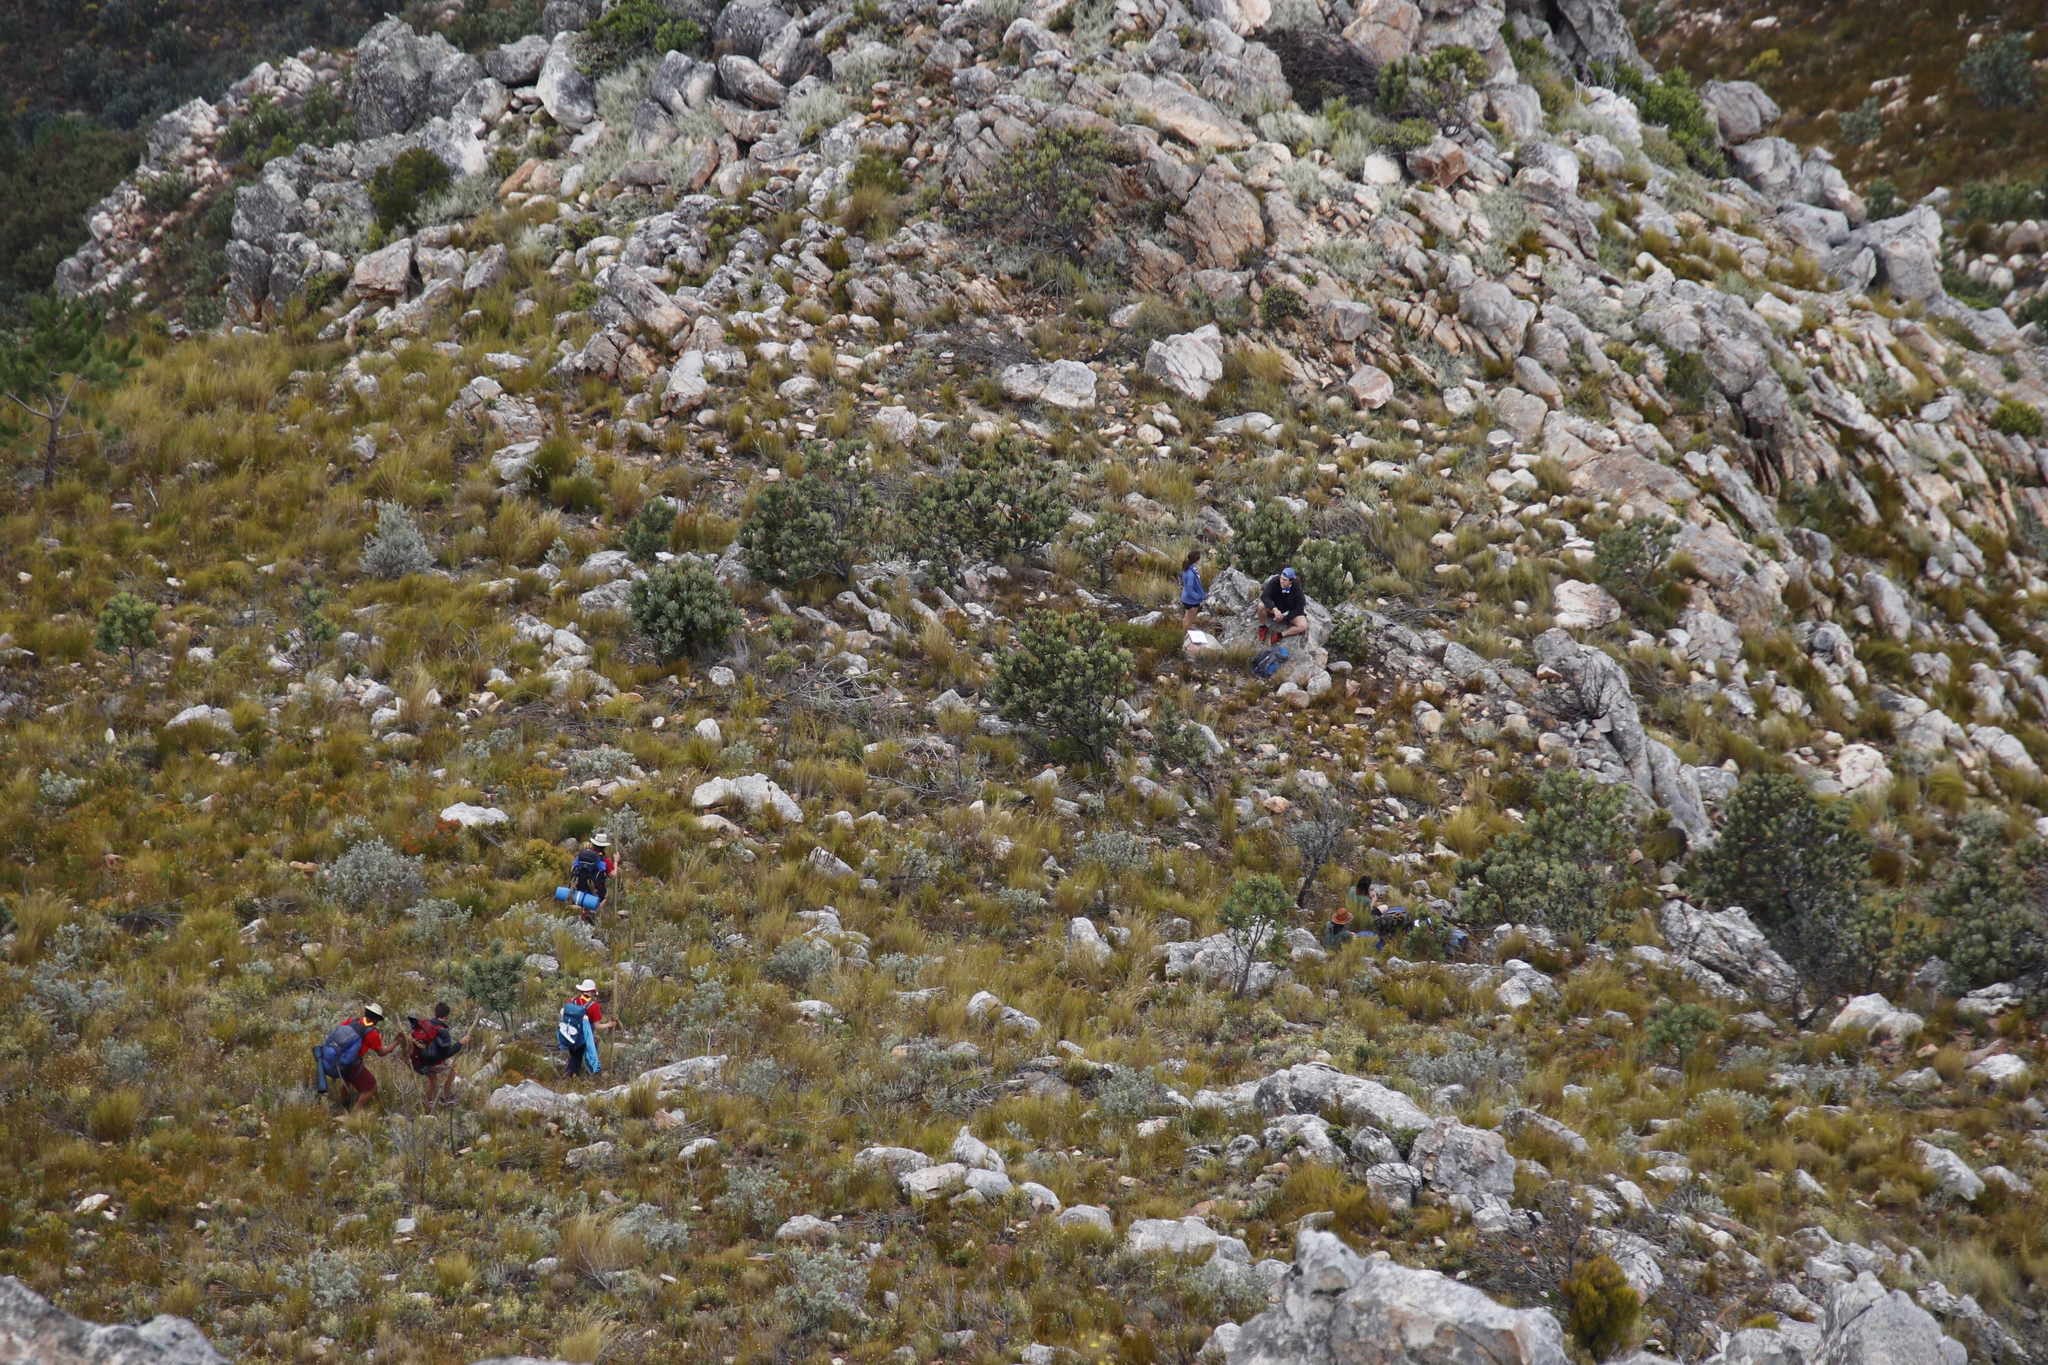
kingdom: Plantae
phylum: Tracheophyta
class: Magnoliopsida
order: Proteales
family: Proteaceae
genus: Protea
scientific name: Protea laurifolia
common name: Grey-leaf sugarbsh
